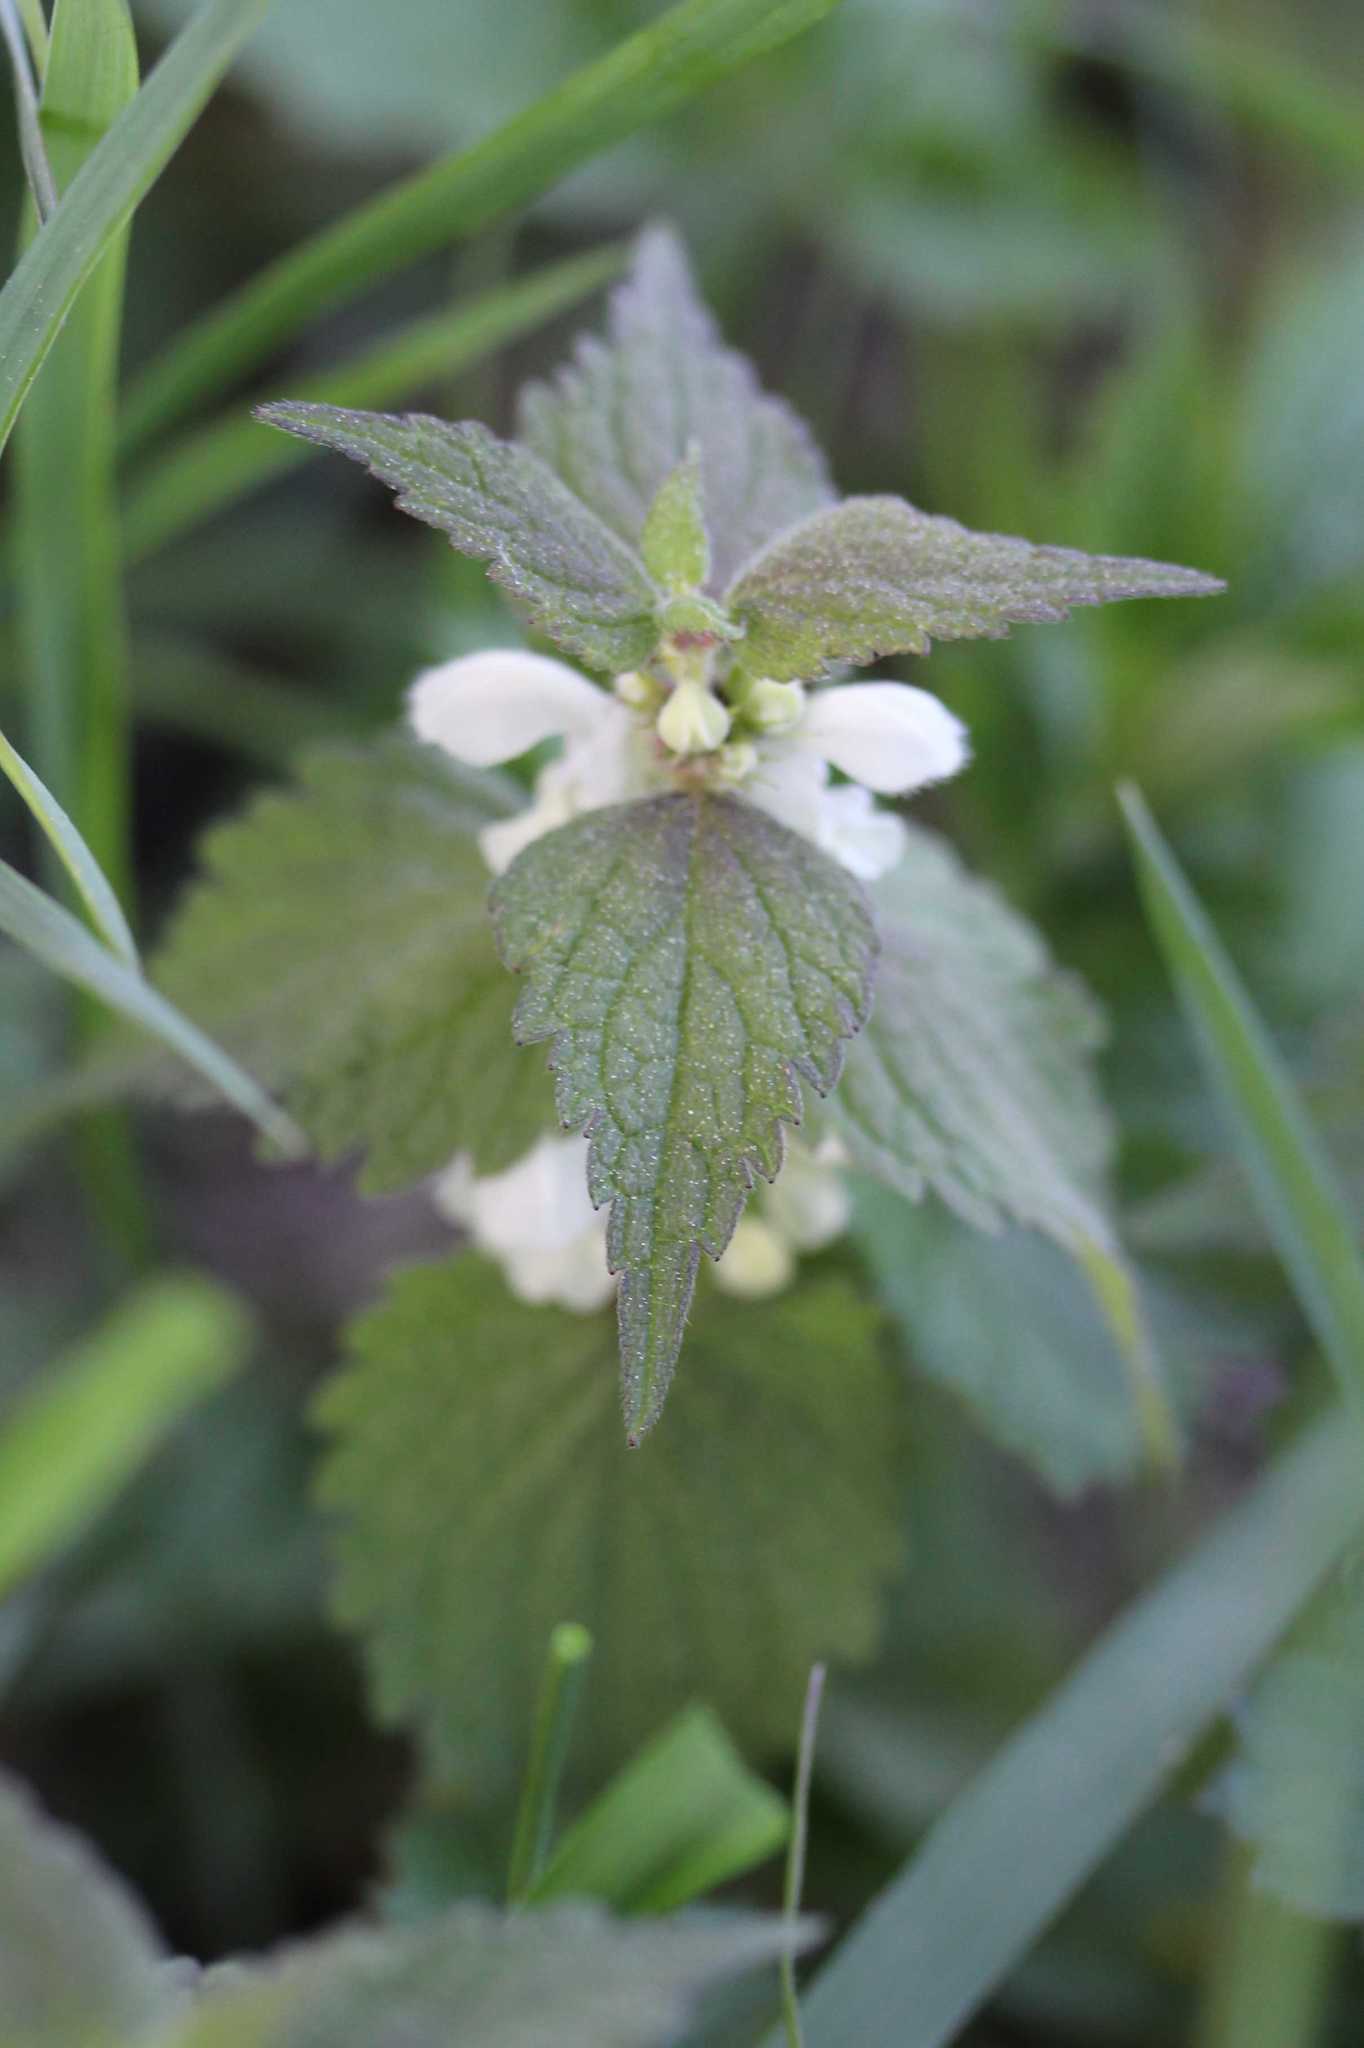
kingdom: Plantae
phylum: Tracheophyta
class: Magnoliopsida
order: Lamiales
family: Lamiaceae
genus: Lamium
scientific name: Lamium album
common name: White dead-nettle
